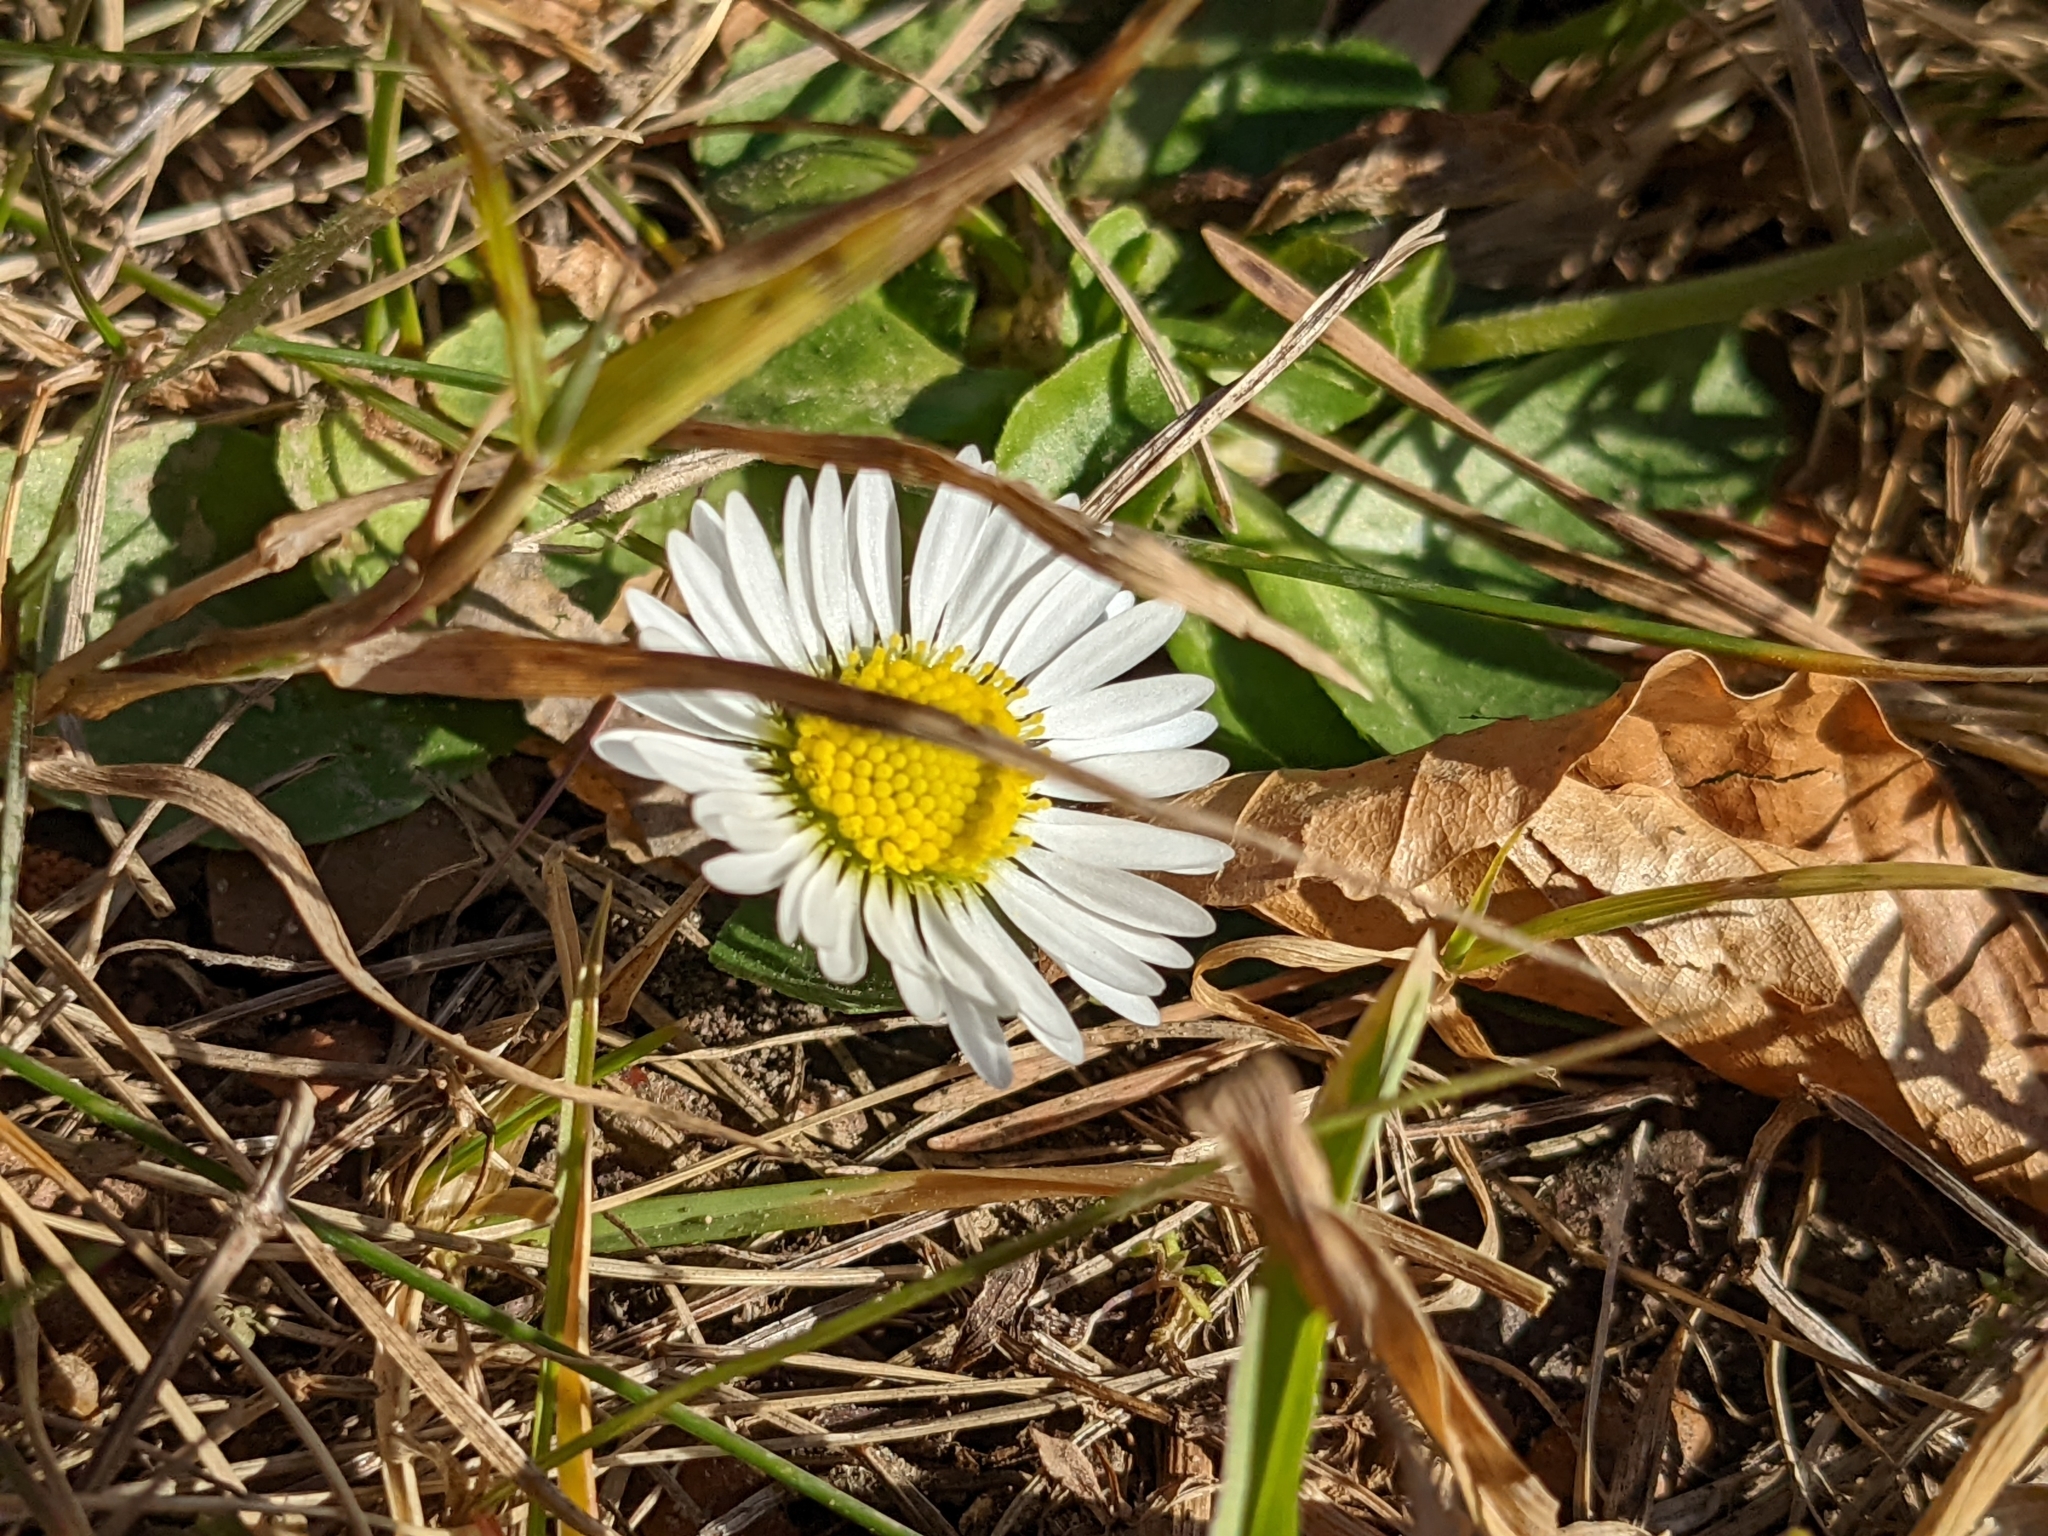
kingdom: Plantae
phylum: Tracheophyta
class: Magnoliopsida
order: Asterales
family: Asteraceae
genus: Bellis
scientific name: Bellis perennis
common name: Lawndaisy
